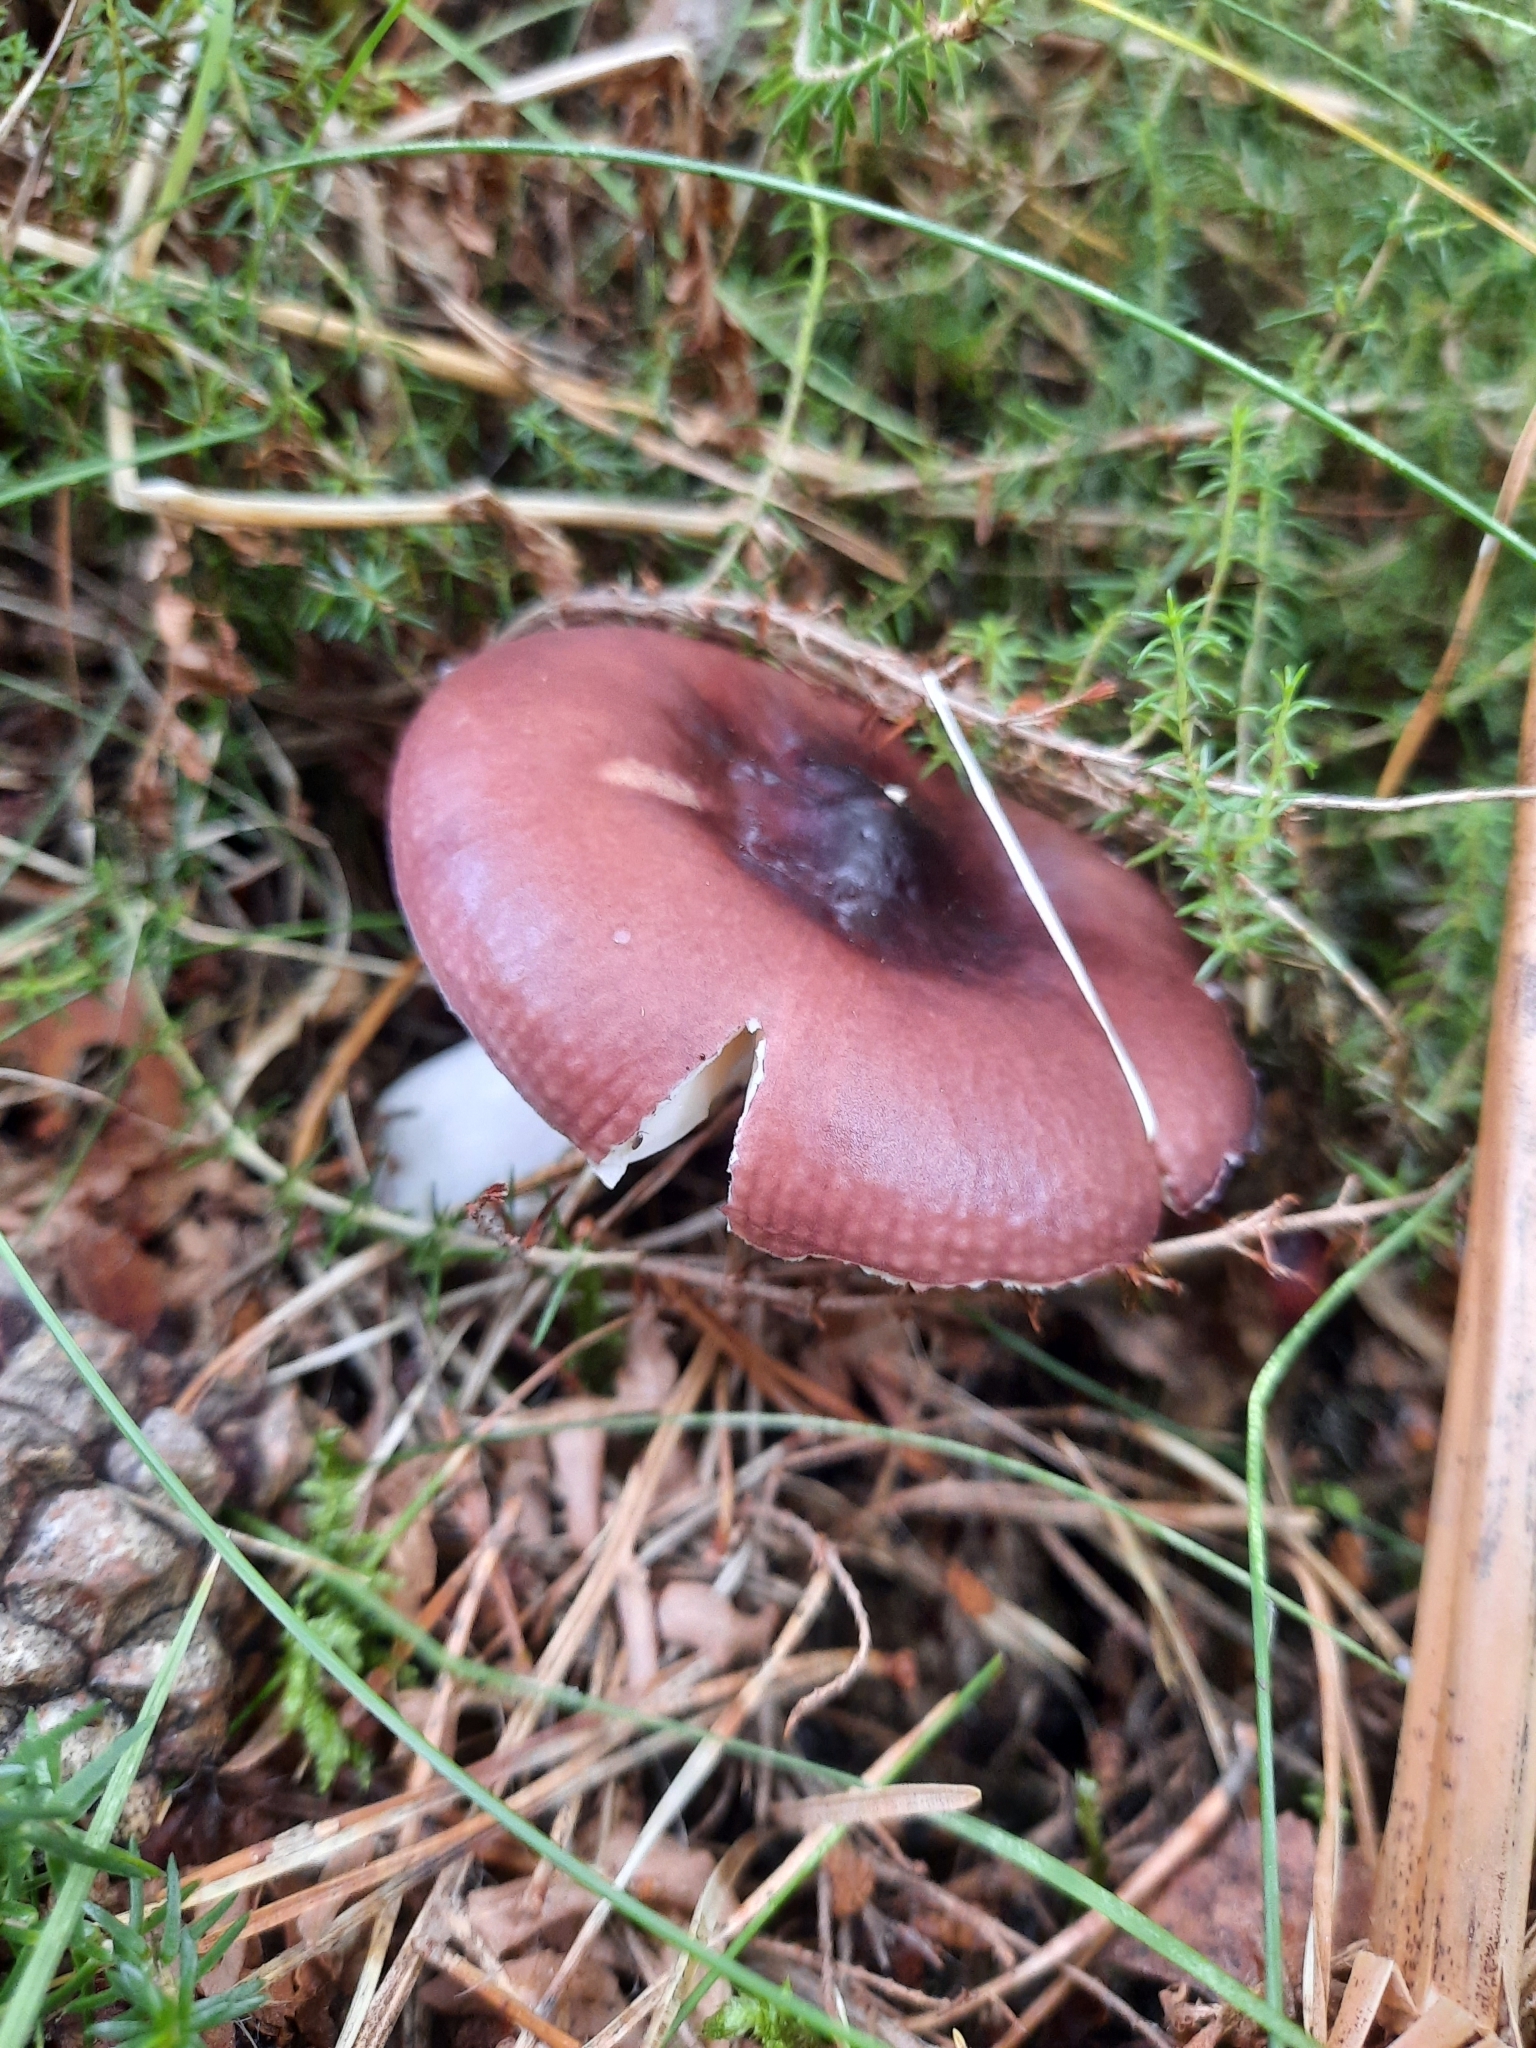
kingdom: Fungi
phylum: Basidiomycota
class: Agaricomycetes
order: Russulales
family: Russulaceae
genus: Russula
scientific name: Russula caerulea
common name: Humpback brittlegill
